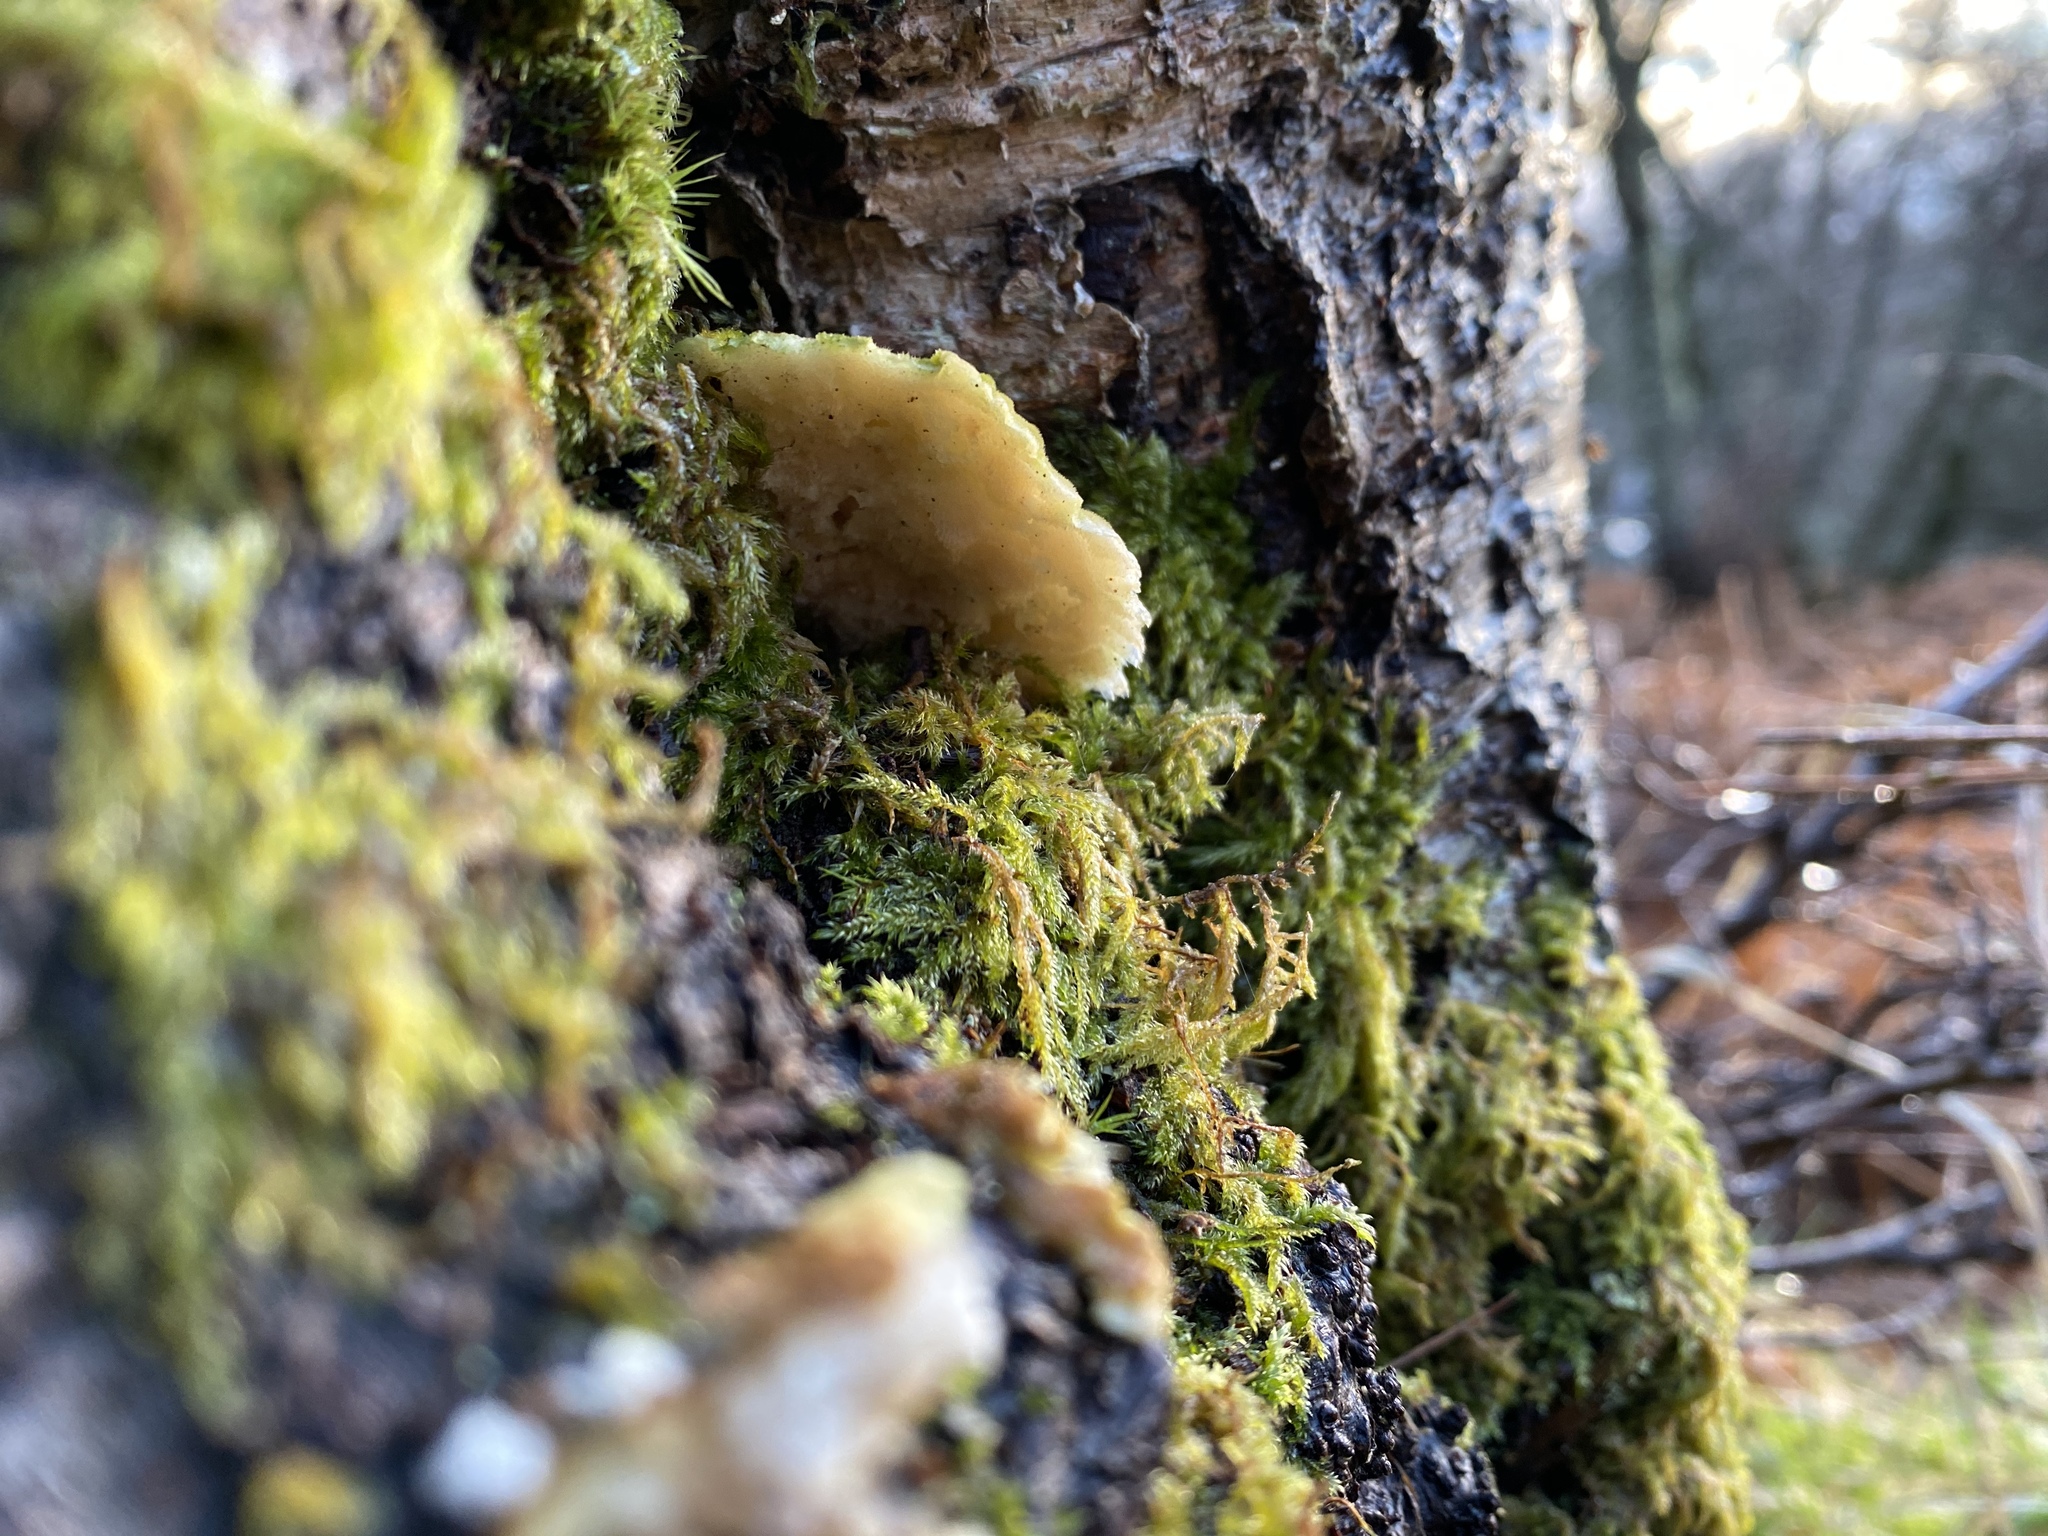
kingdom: Fungi
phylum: Basidiomycota
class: Agaricomycetes
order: Polyporales
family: Polyporaceae
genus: Trametes
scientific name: Trametes ochracea
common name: Ochre bracket
